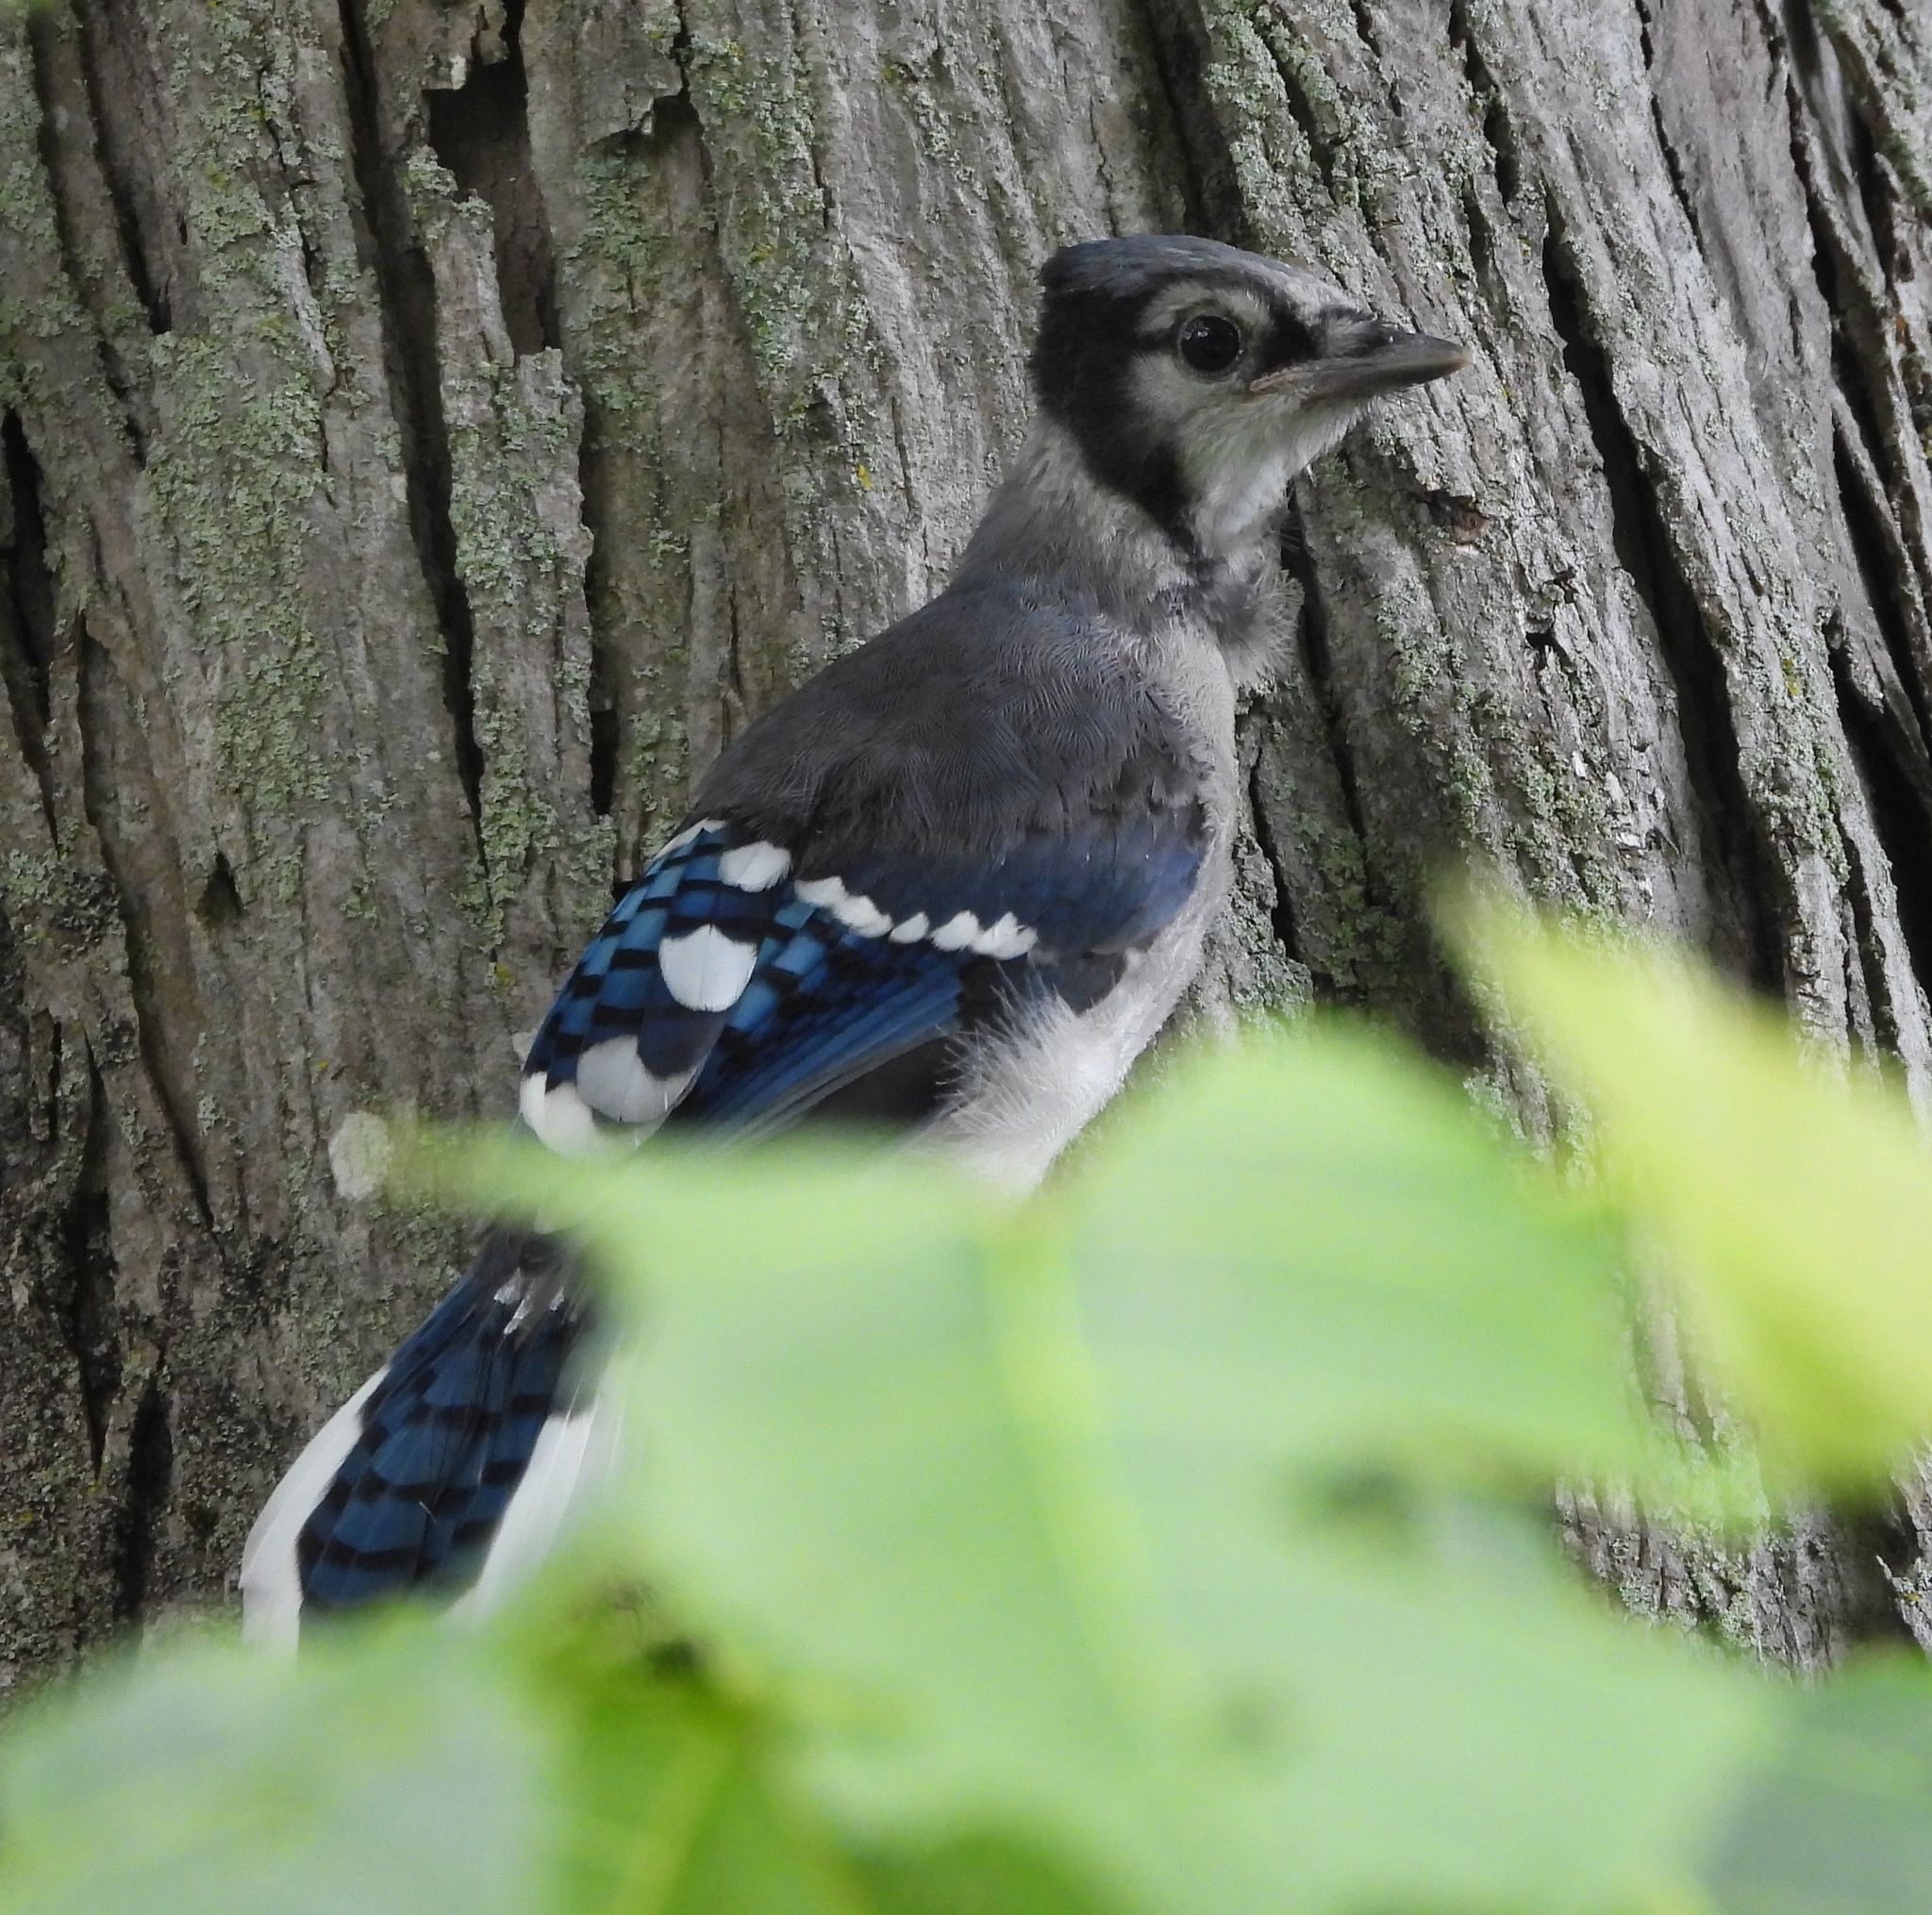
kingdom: Animalia
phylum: Chordata
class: Aves
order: Passeriformes
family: Corvidae
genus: Cyanocitta
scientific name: Cyanocitta cristata
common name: Blue jay
